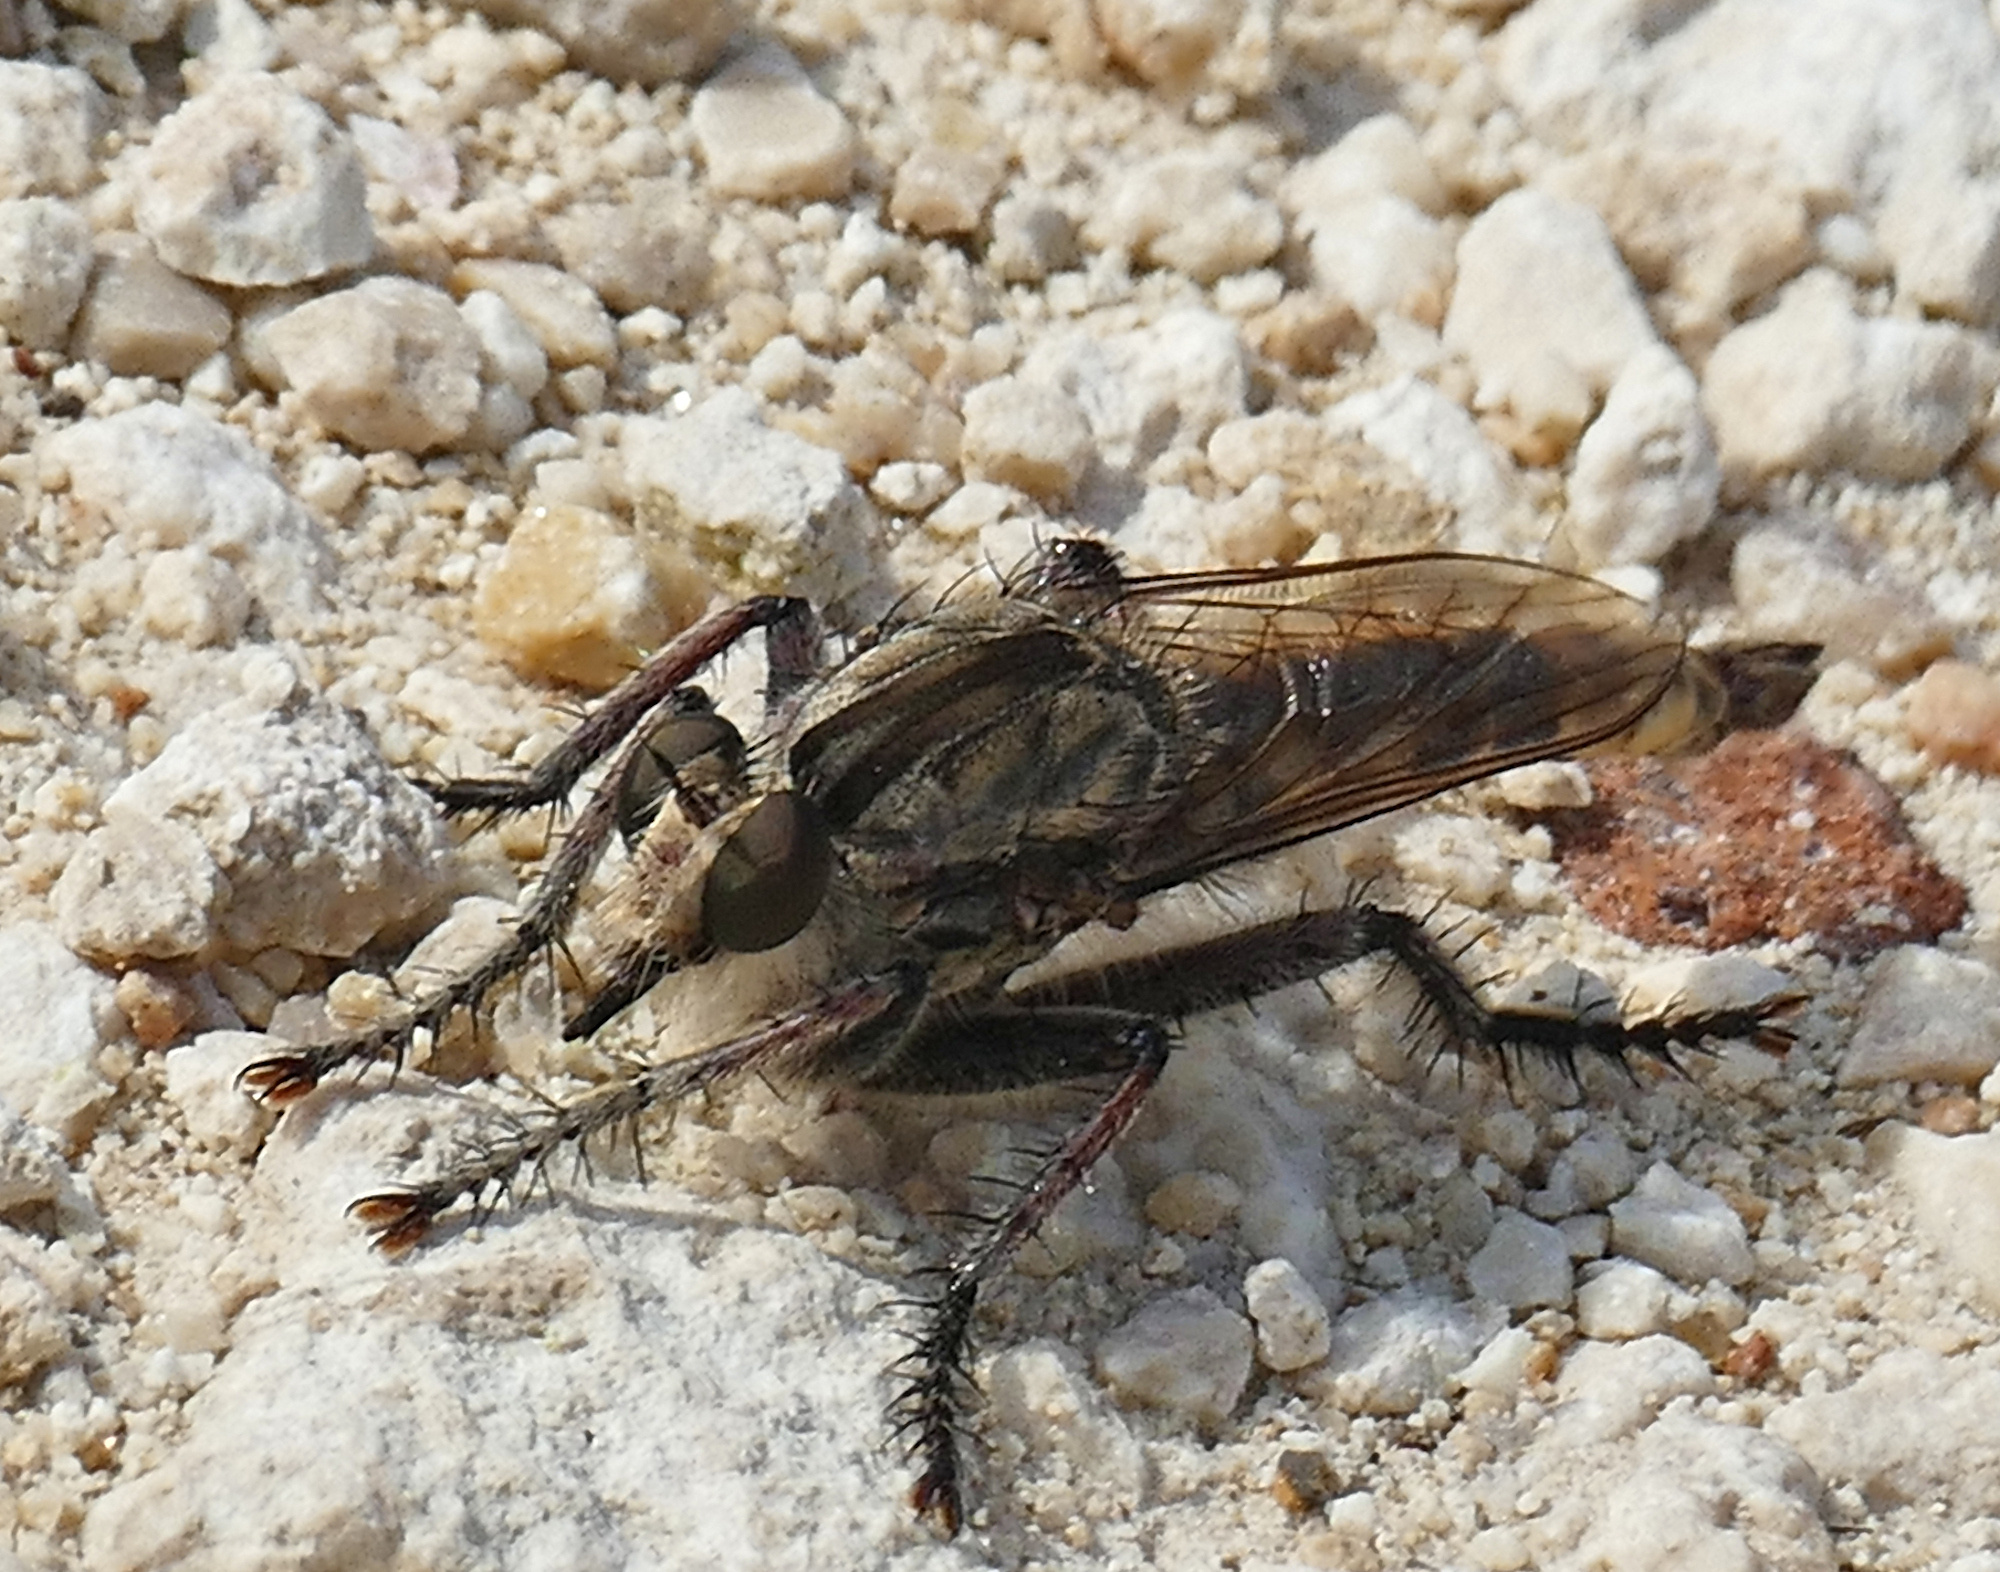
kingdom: Animalia
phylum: Arthropoda
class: Insecta
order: Diptera
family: Asilidae
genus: Triorla
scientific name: Triorla interrupta
